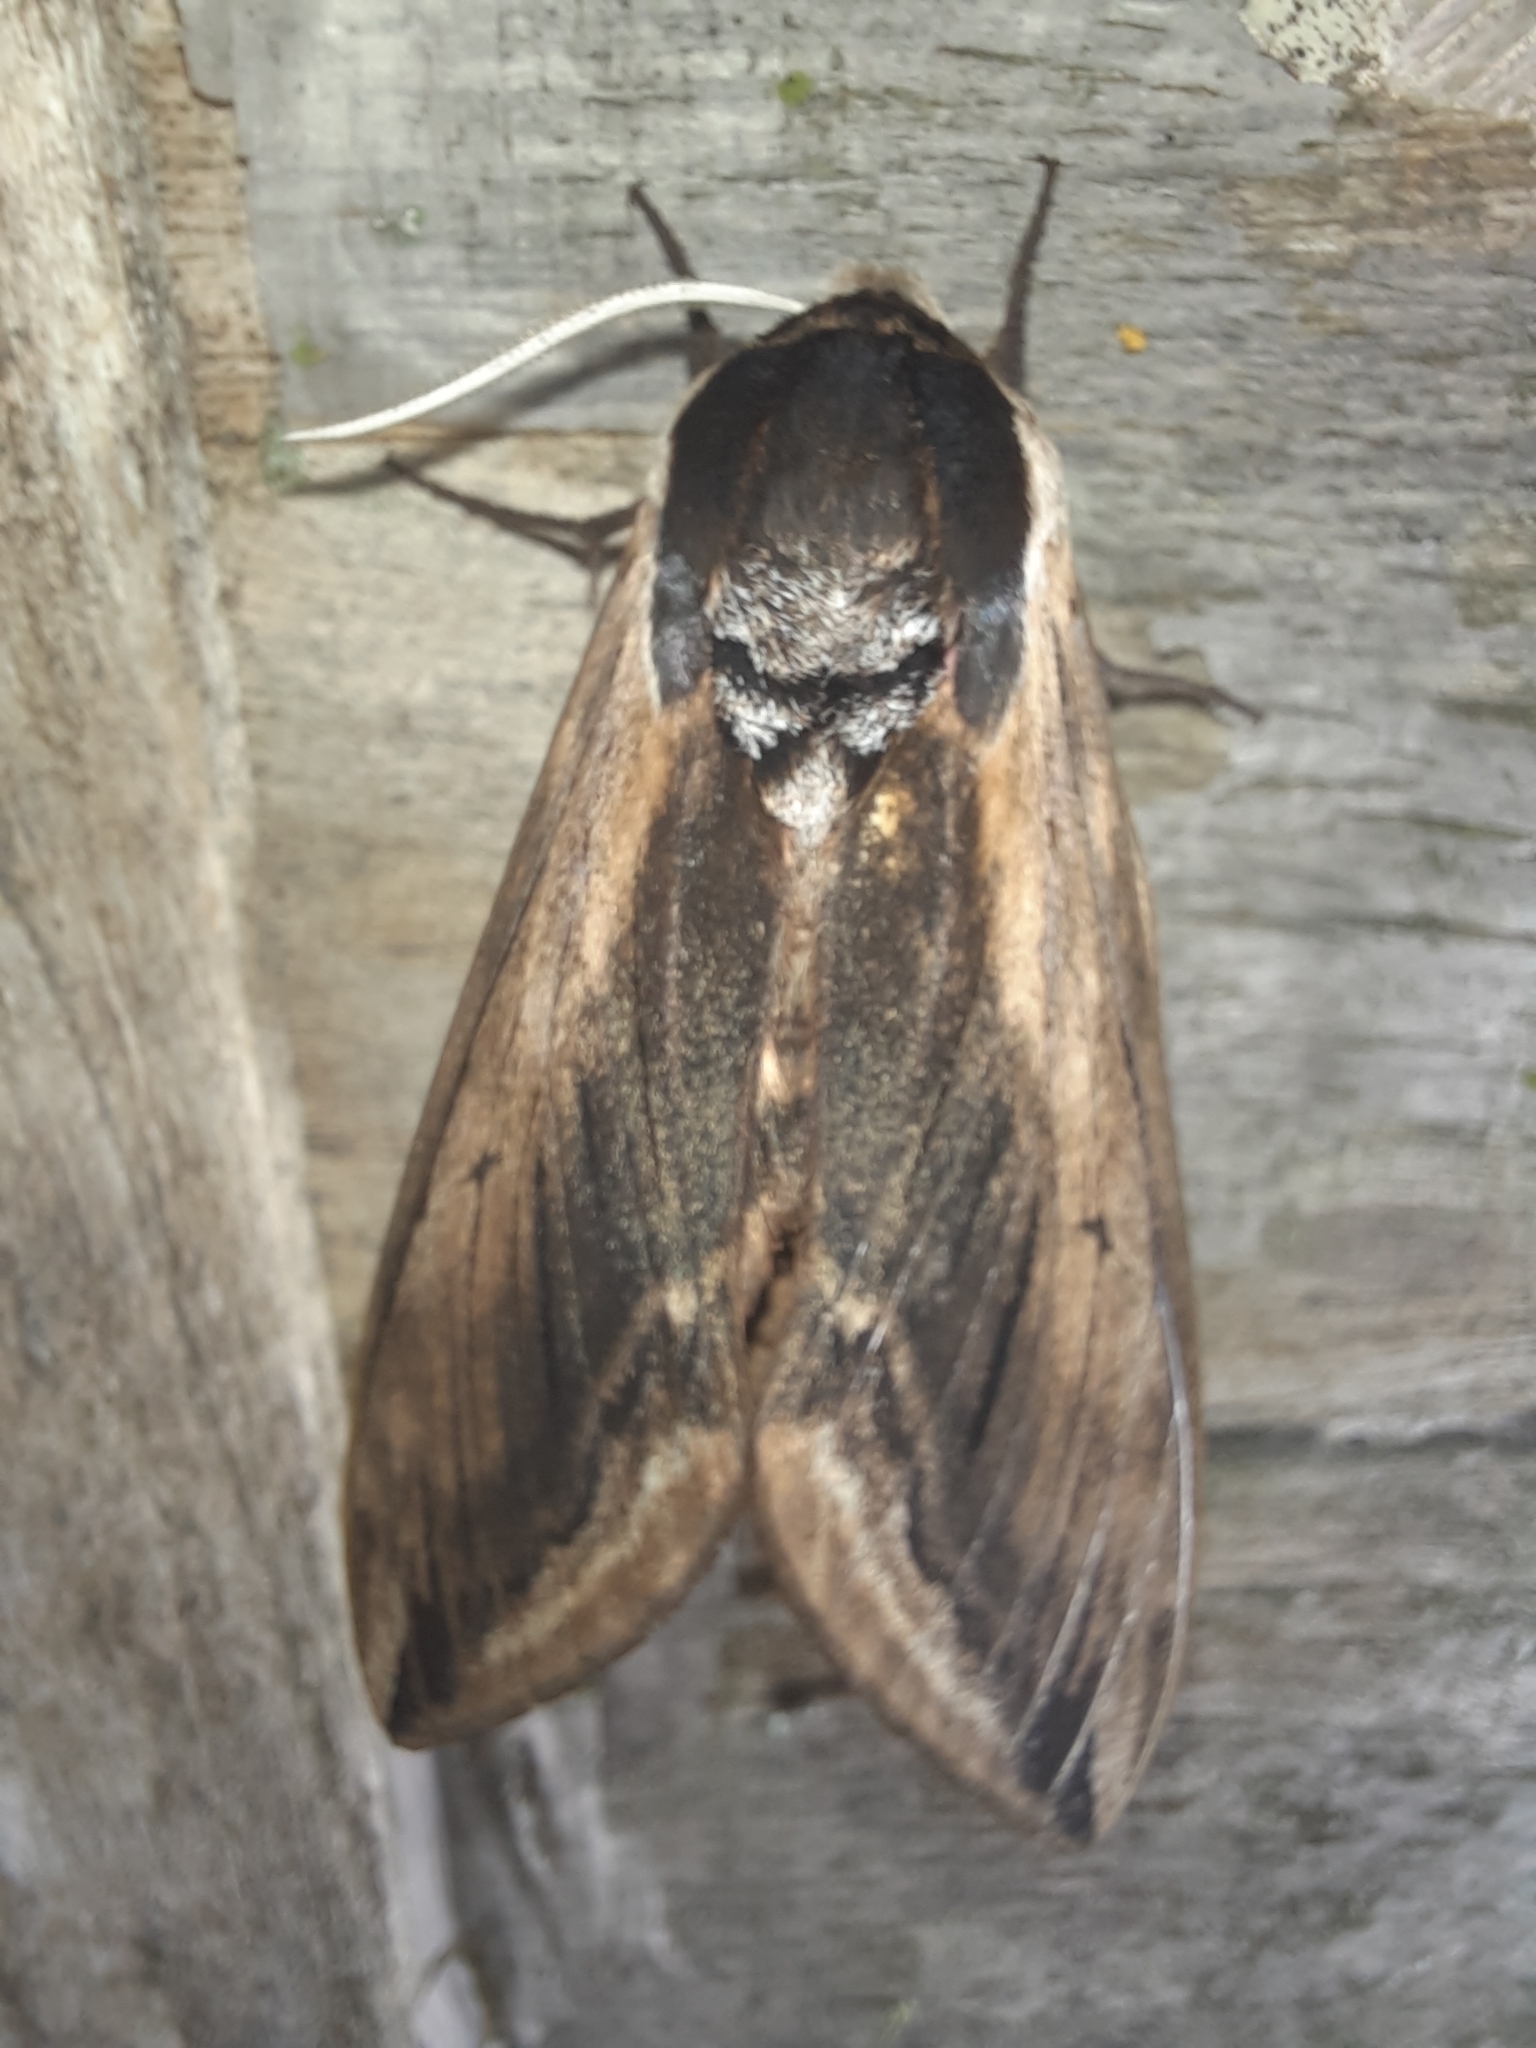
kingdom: Animalia
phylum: Arthropoda
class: Insecta
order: Lepidoptera
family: Sphingidae
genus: Sphinx
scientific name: Sphinx ligustri
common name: Privet hawk-moth
